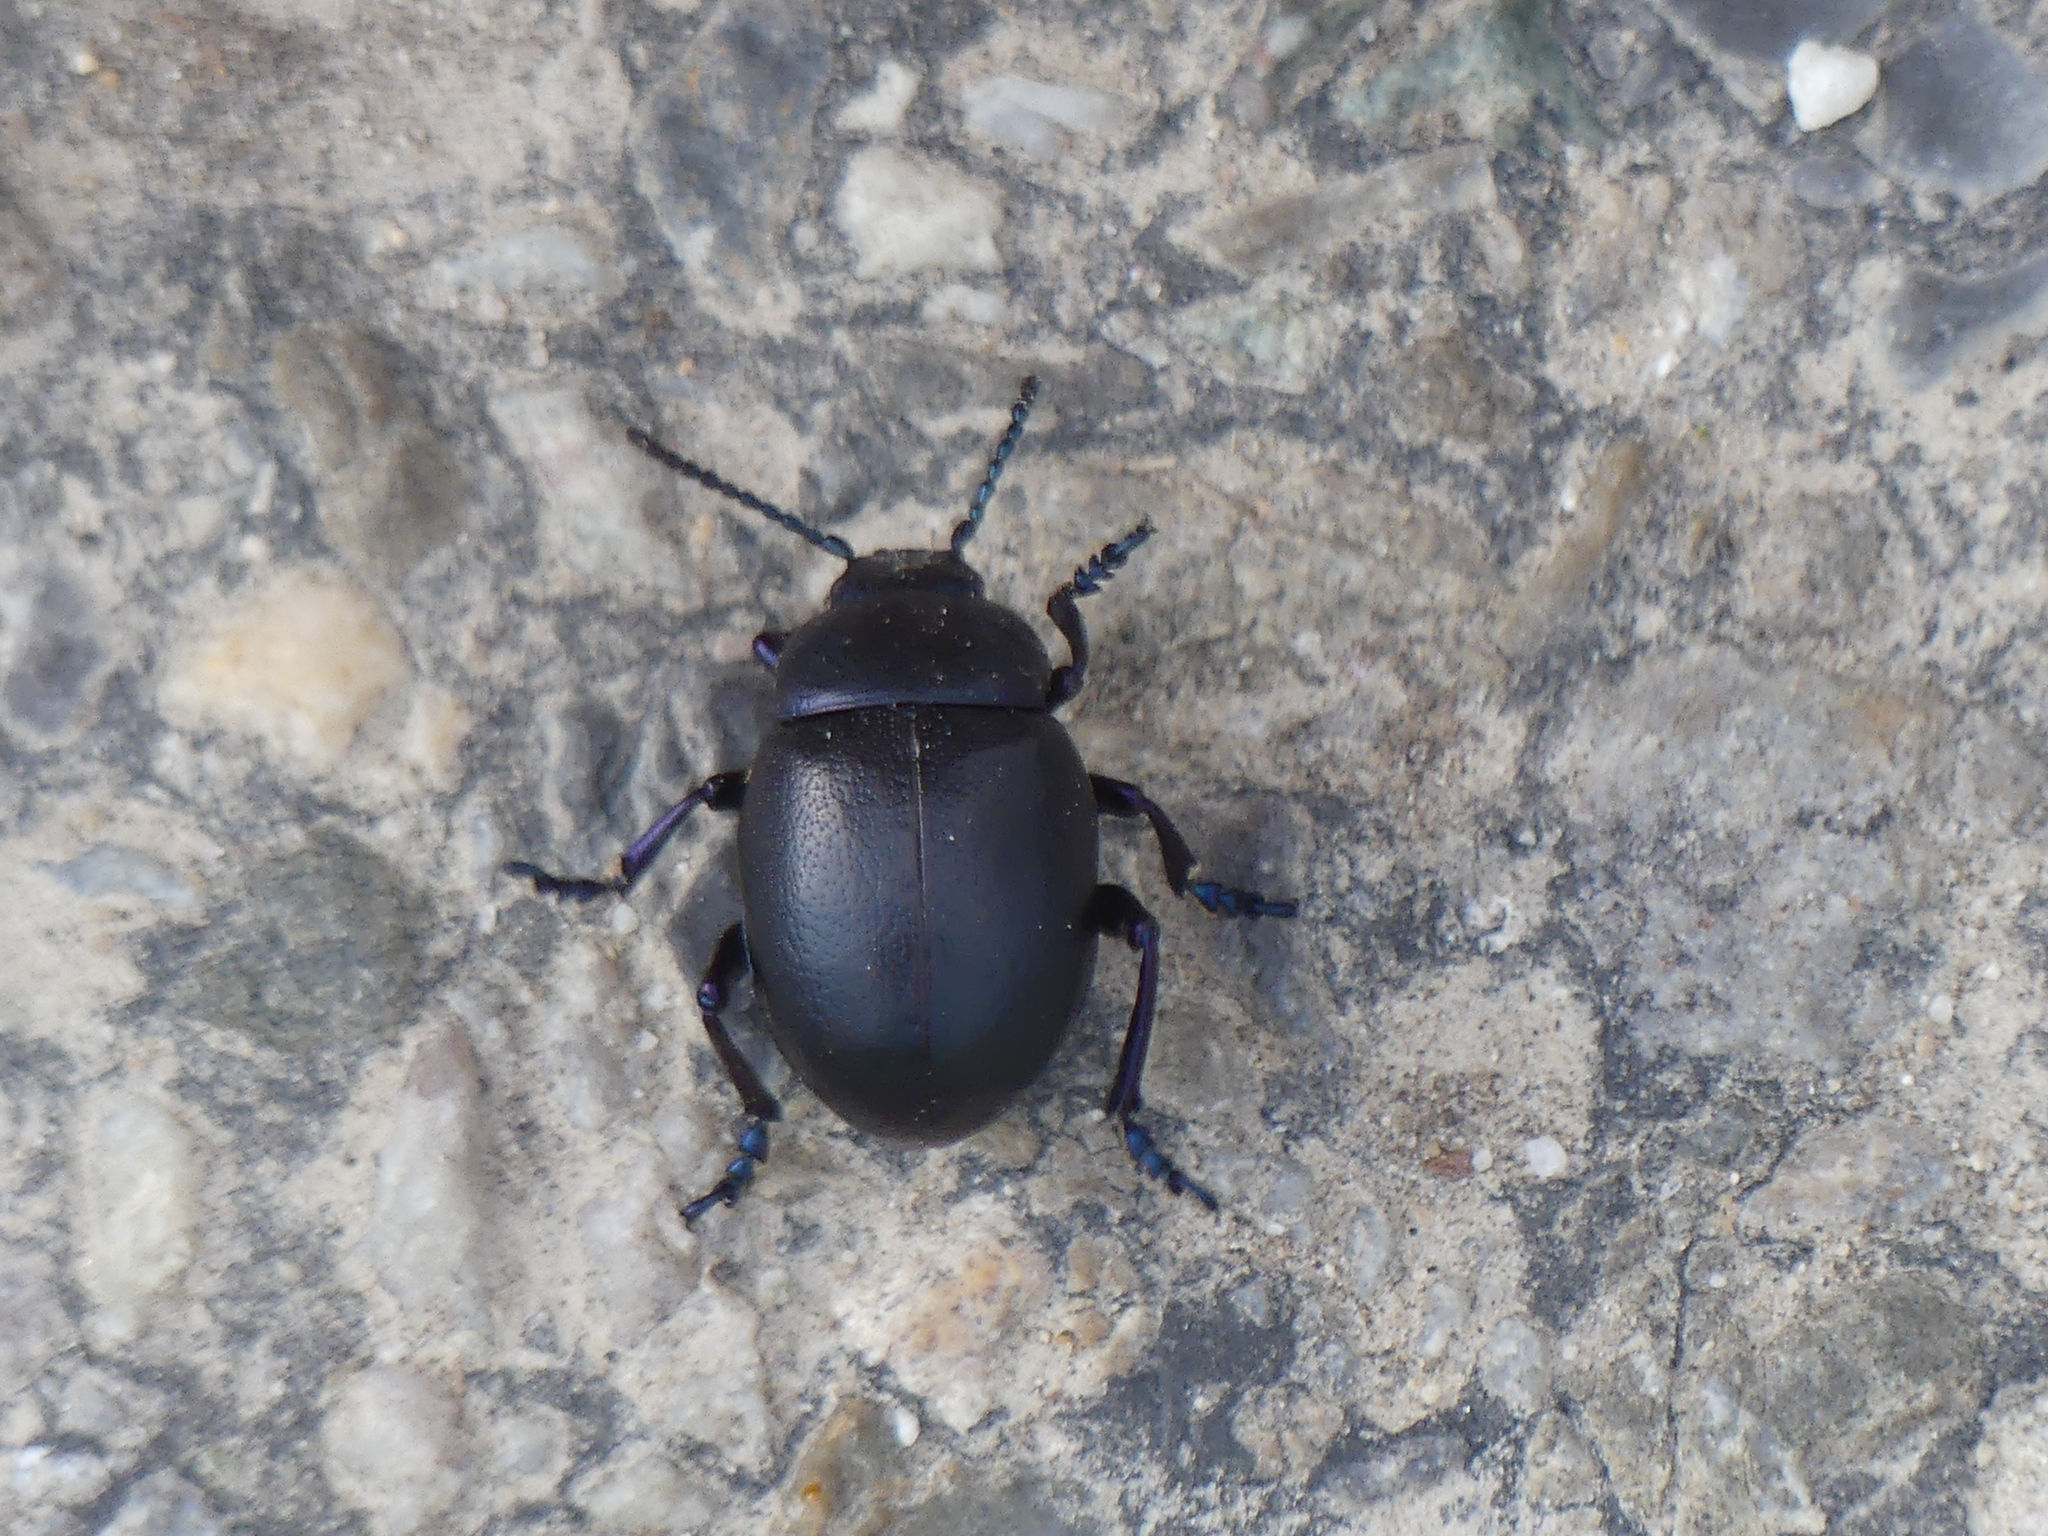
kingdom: Animalia
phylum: Arthropoda
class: Insecta
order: Coleoptera
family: Chrysomelidae
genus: Timarcha
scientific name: Timarcha goettingensis
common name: Small bloody-nosed beetle
